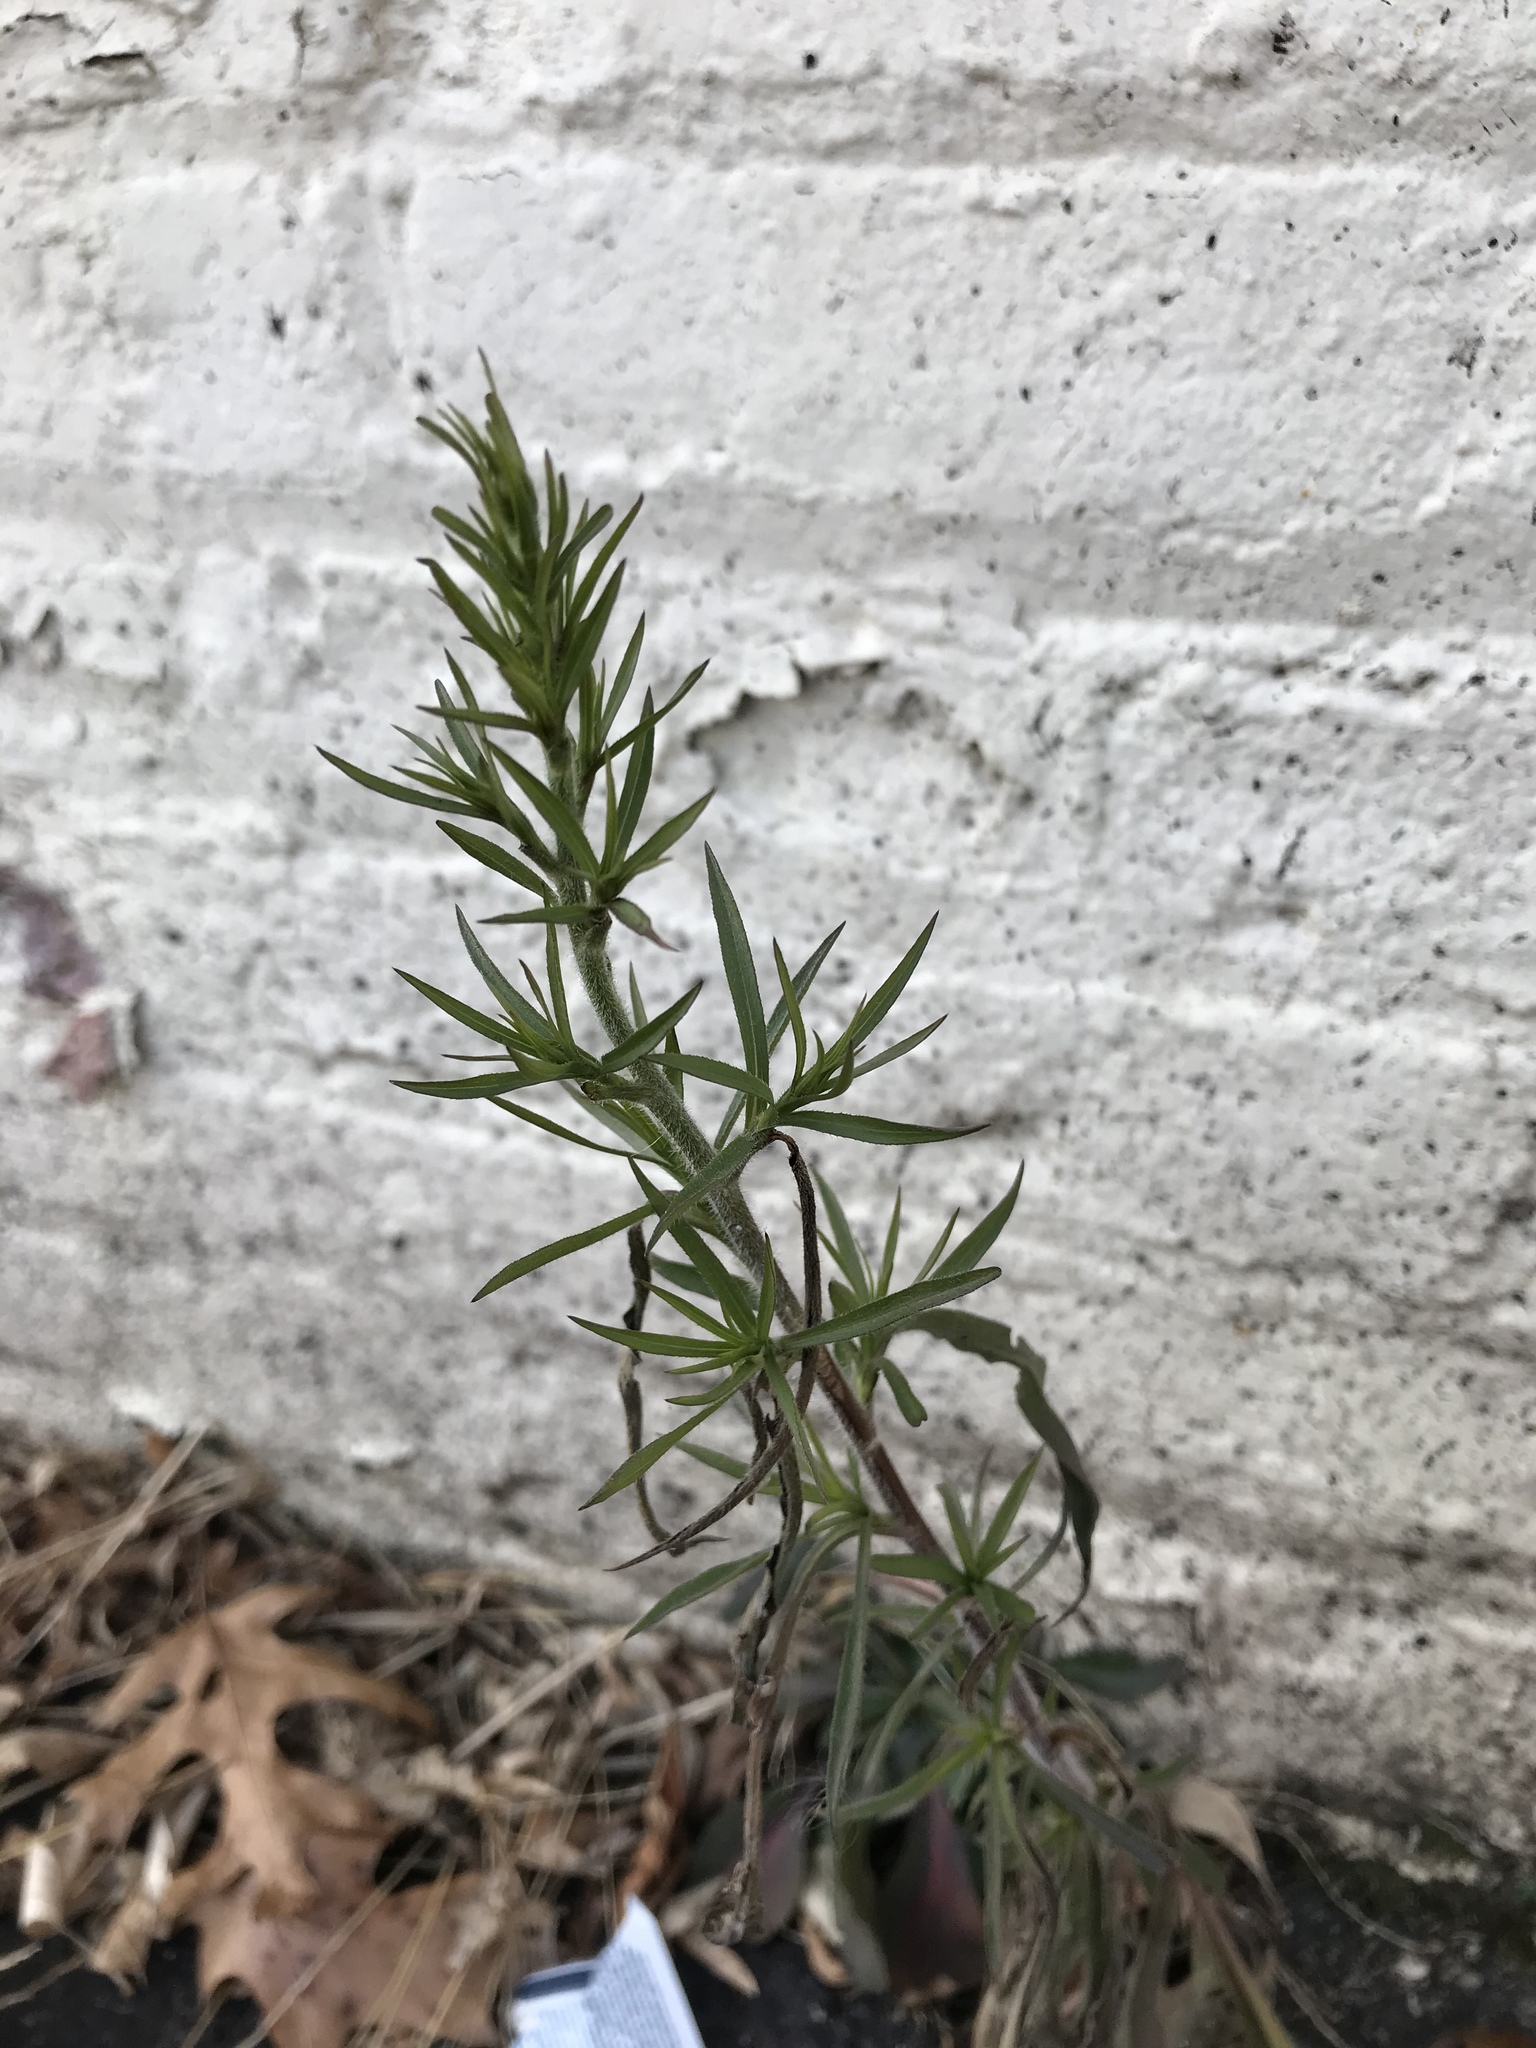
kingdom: Plantae
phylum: Tracheophyta
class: Magnoliopsida
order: Asterales
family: Asteraceae
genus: Symphyotrichum
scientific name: Symphyotrichum pilosum
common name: Awl aster
